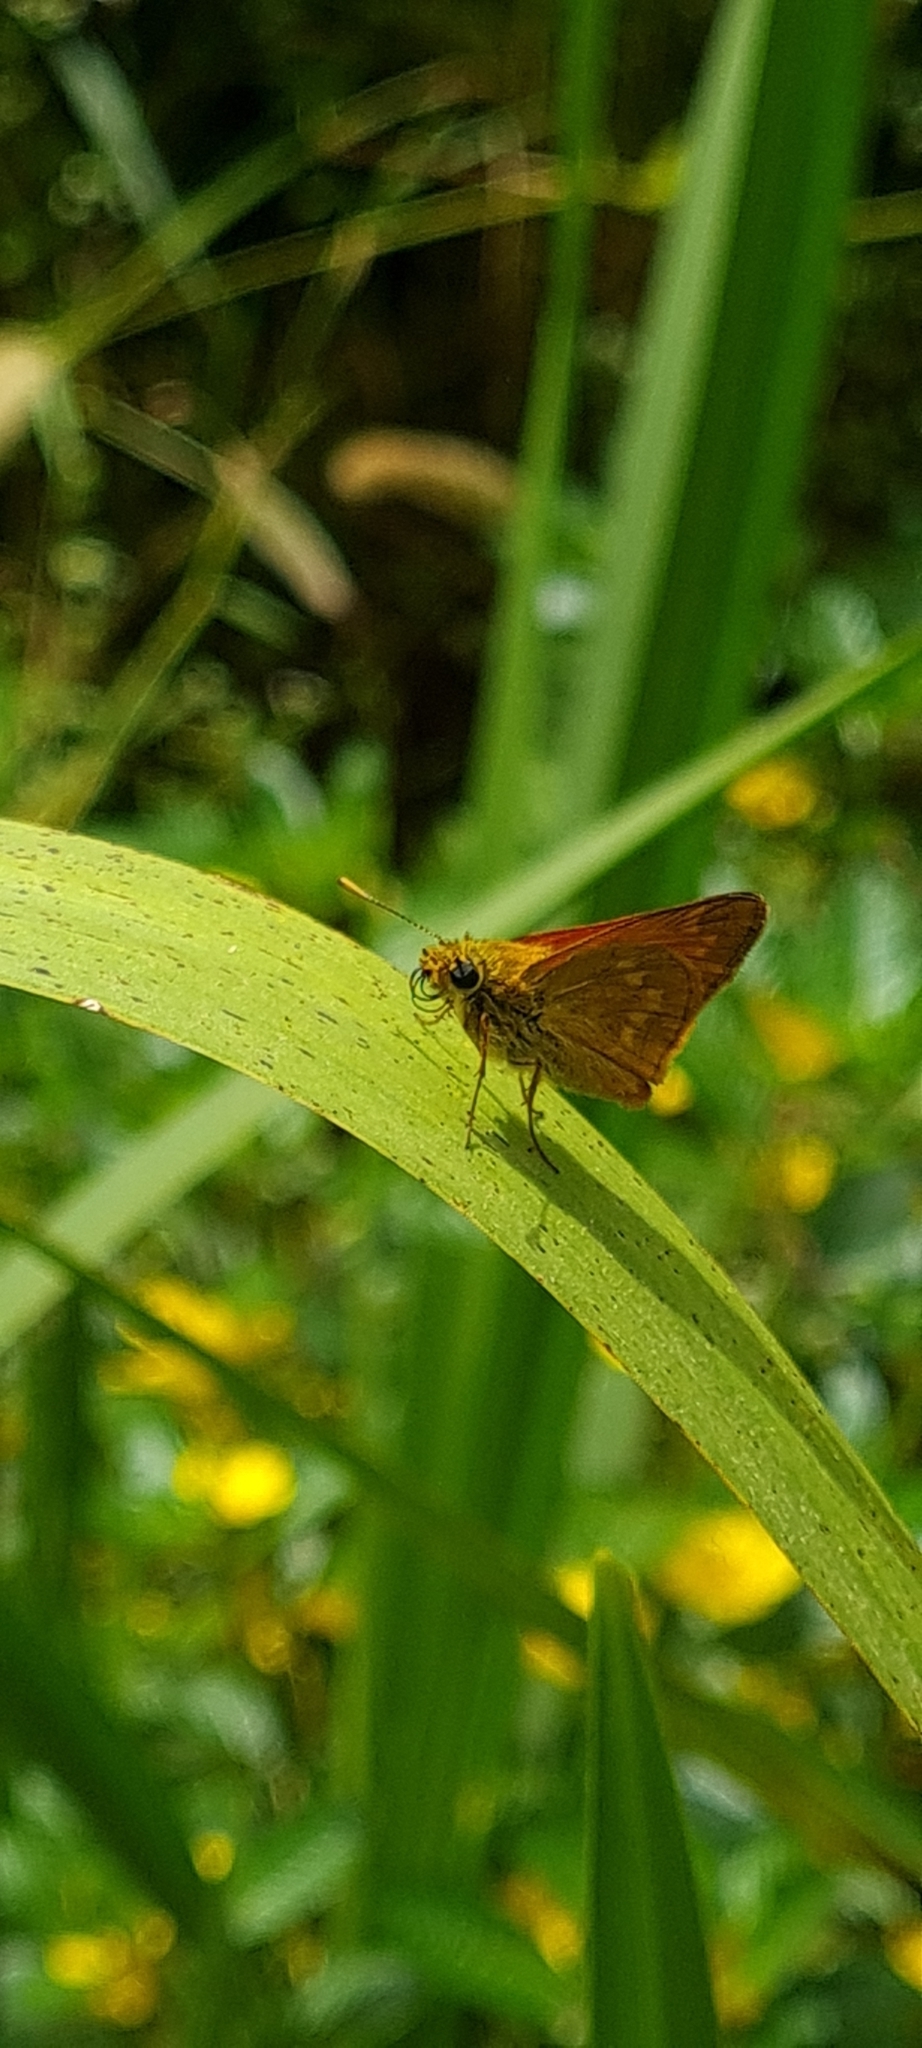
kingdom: Animalia
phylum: Arthropoda
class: Insecta
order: Lepidoptera
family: Hesperiidae
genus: Ochlodes
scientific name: Ochlodes venata
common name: Large skipper
